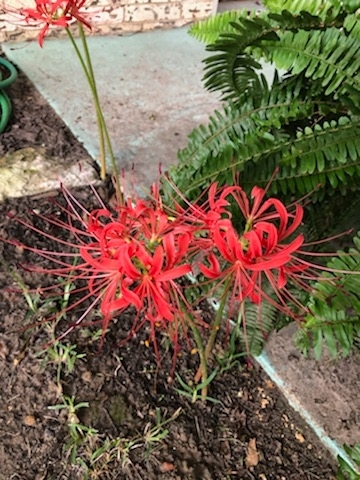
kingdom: Plantae
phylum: Tracheophyta
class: Liliopsida
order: Asparagales
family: Amaryllidaceae
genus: Lycoris
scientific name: Lycoris radiata
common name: Red spider lily
